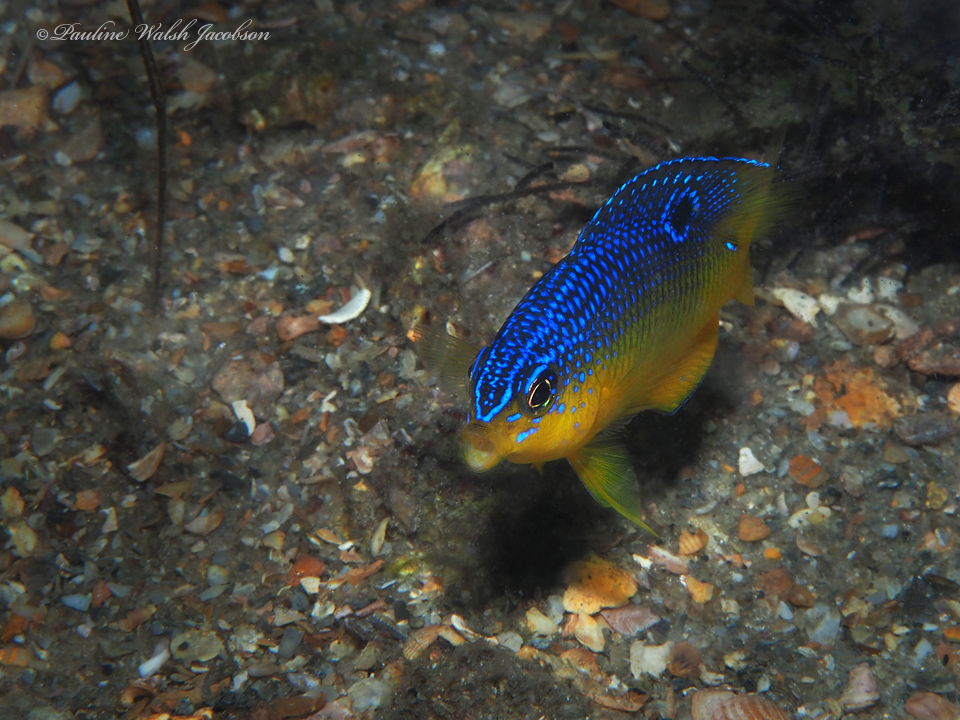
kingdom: Animalia
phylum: Chordata
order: Perciformes
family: Pomacentridae
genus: Stegastes
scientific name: Stegastes xanthurus
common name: Cocoa damselfish
